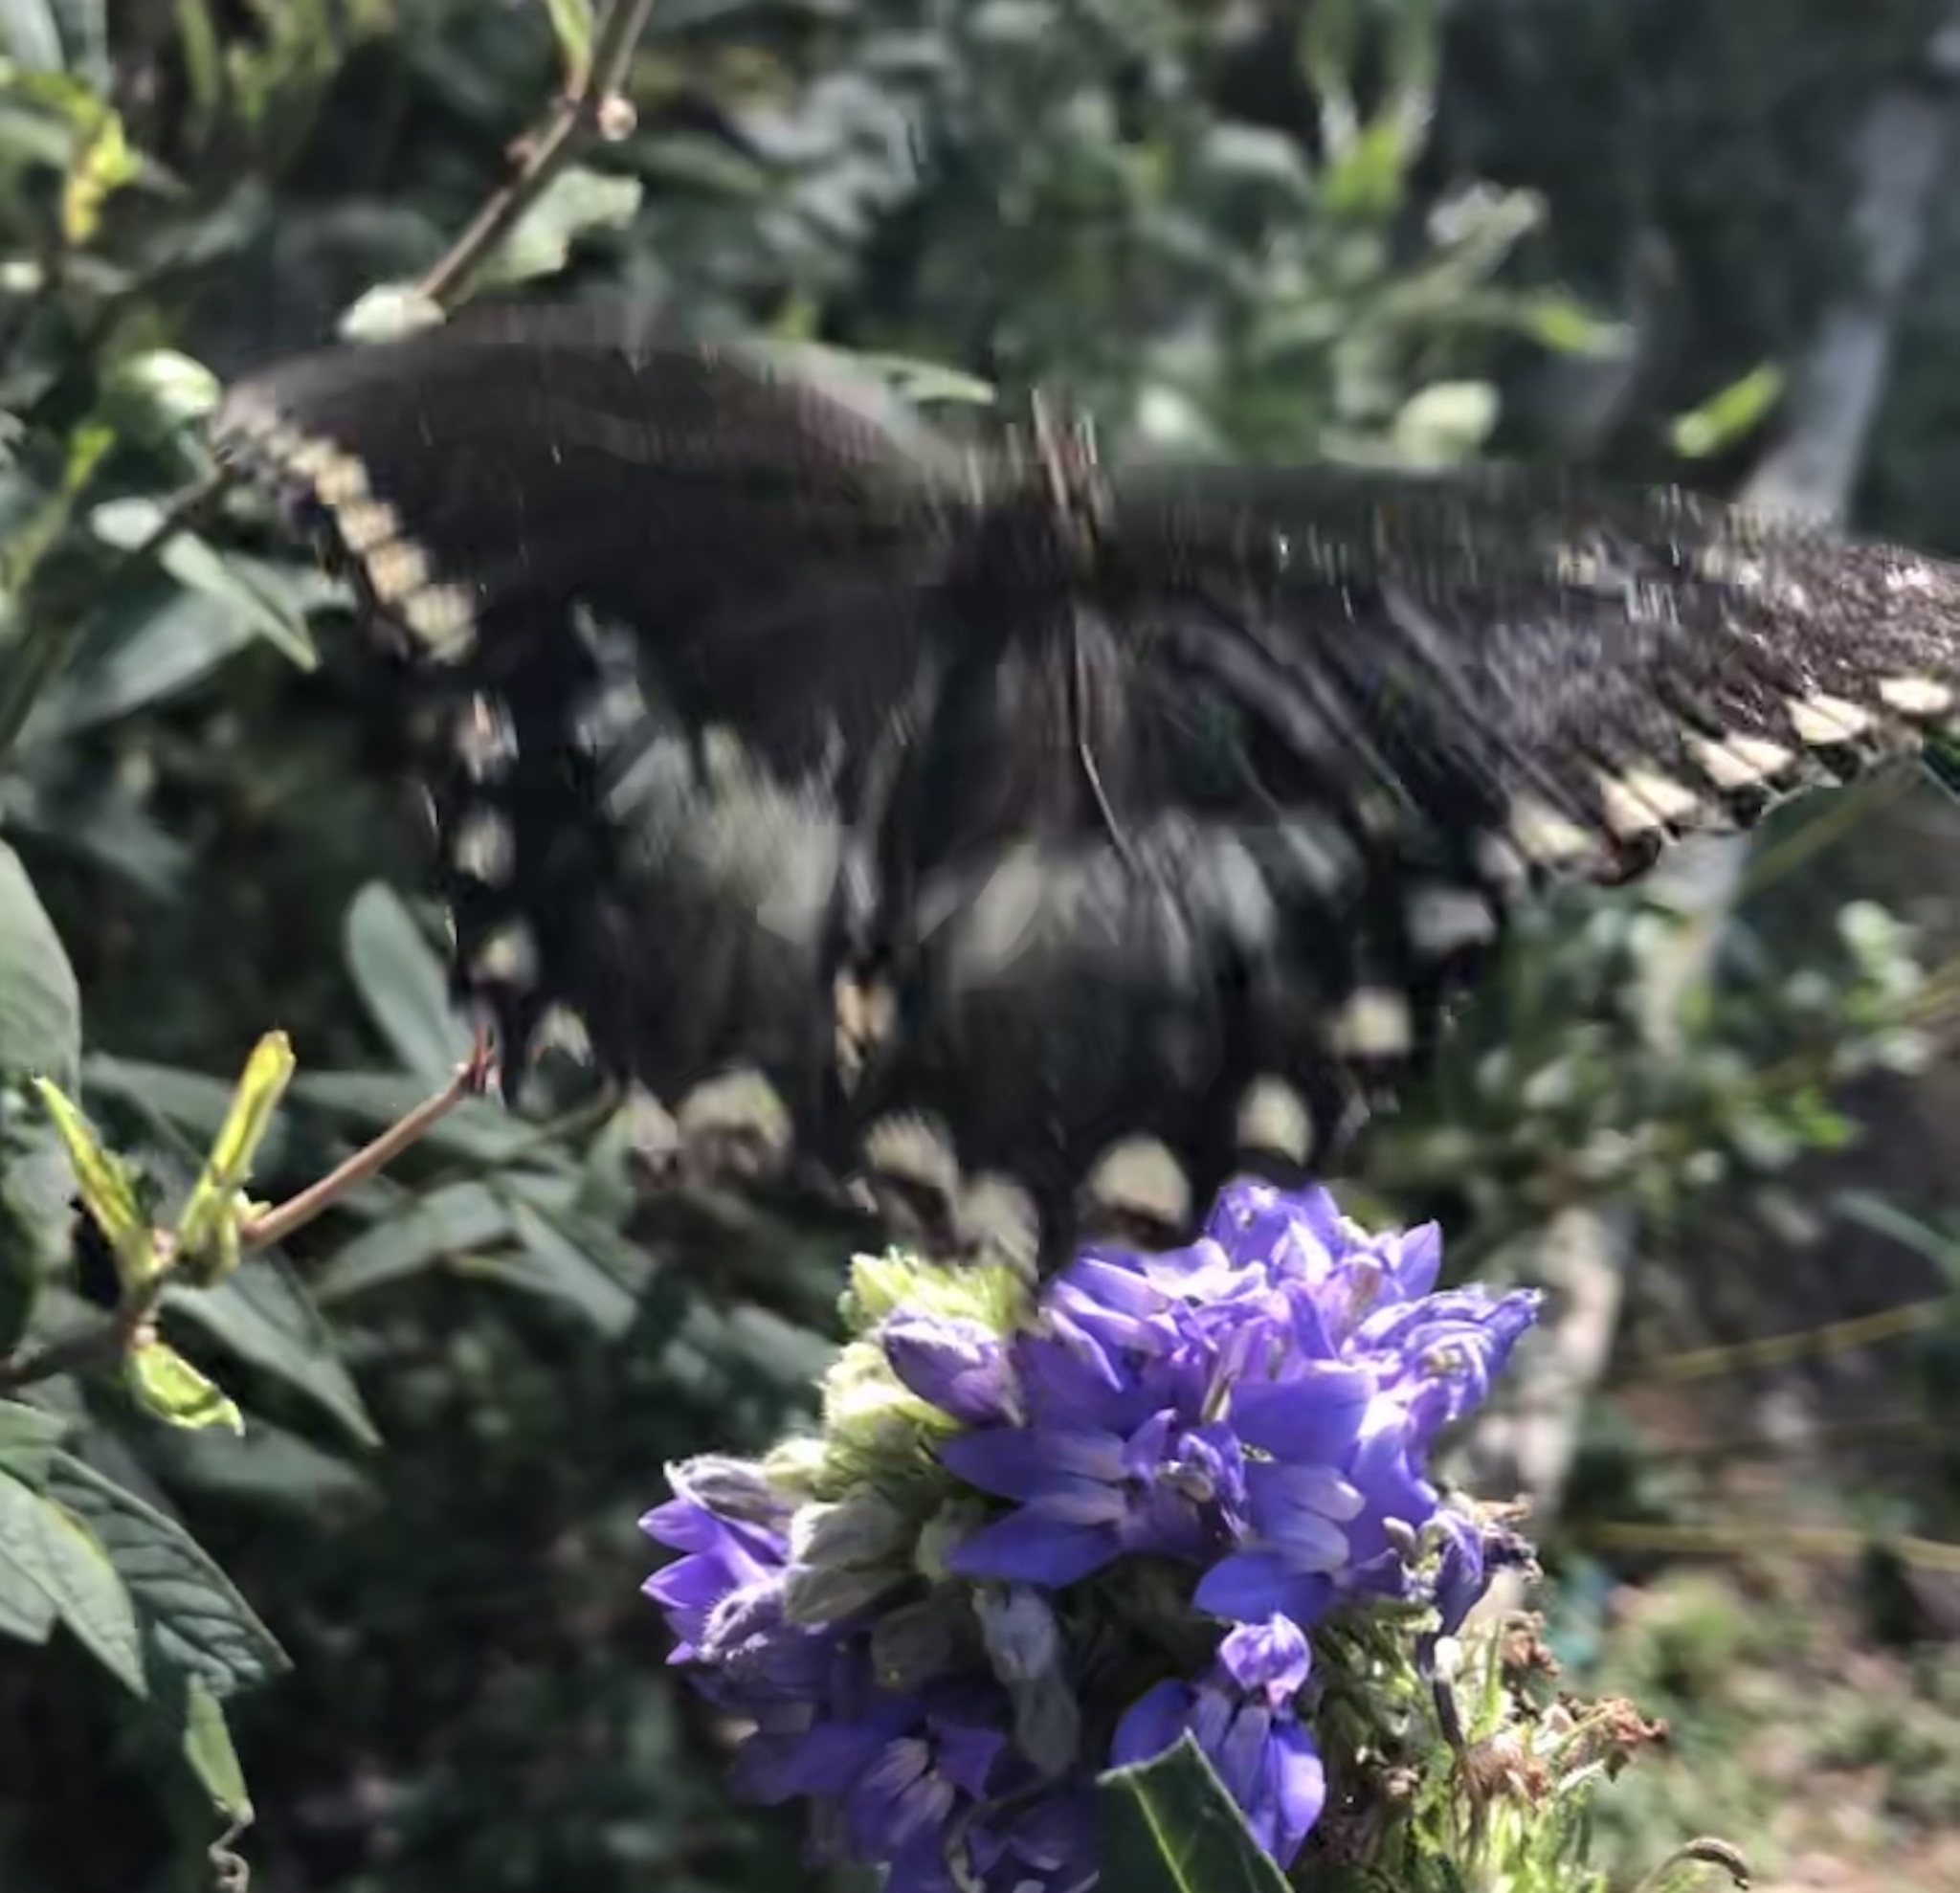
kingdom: Animalia
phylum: Arthropoda
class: Insecta
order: Lepidoptera
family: Papilionidae
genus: Papilio
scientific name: Papilio troilus
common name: Spicebush swallowtail
